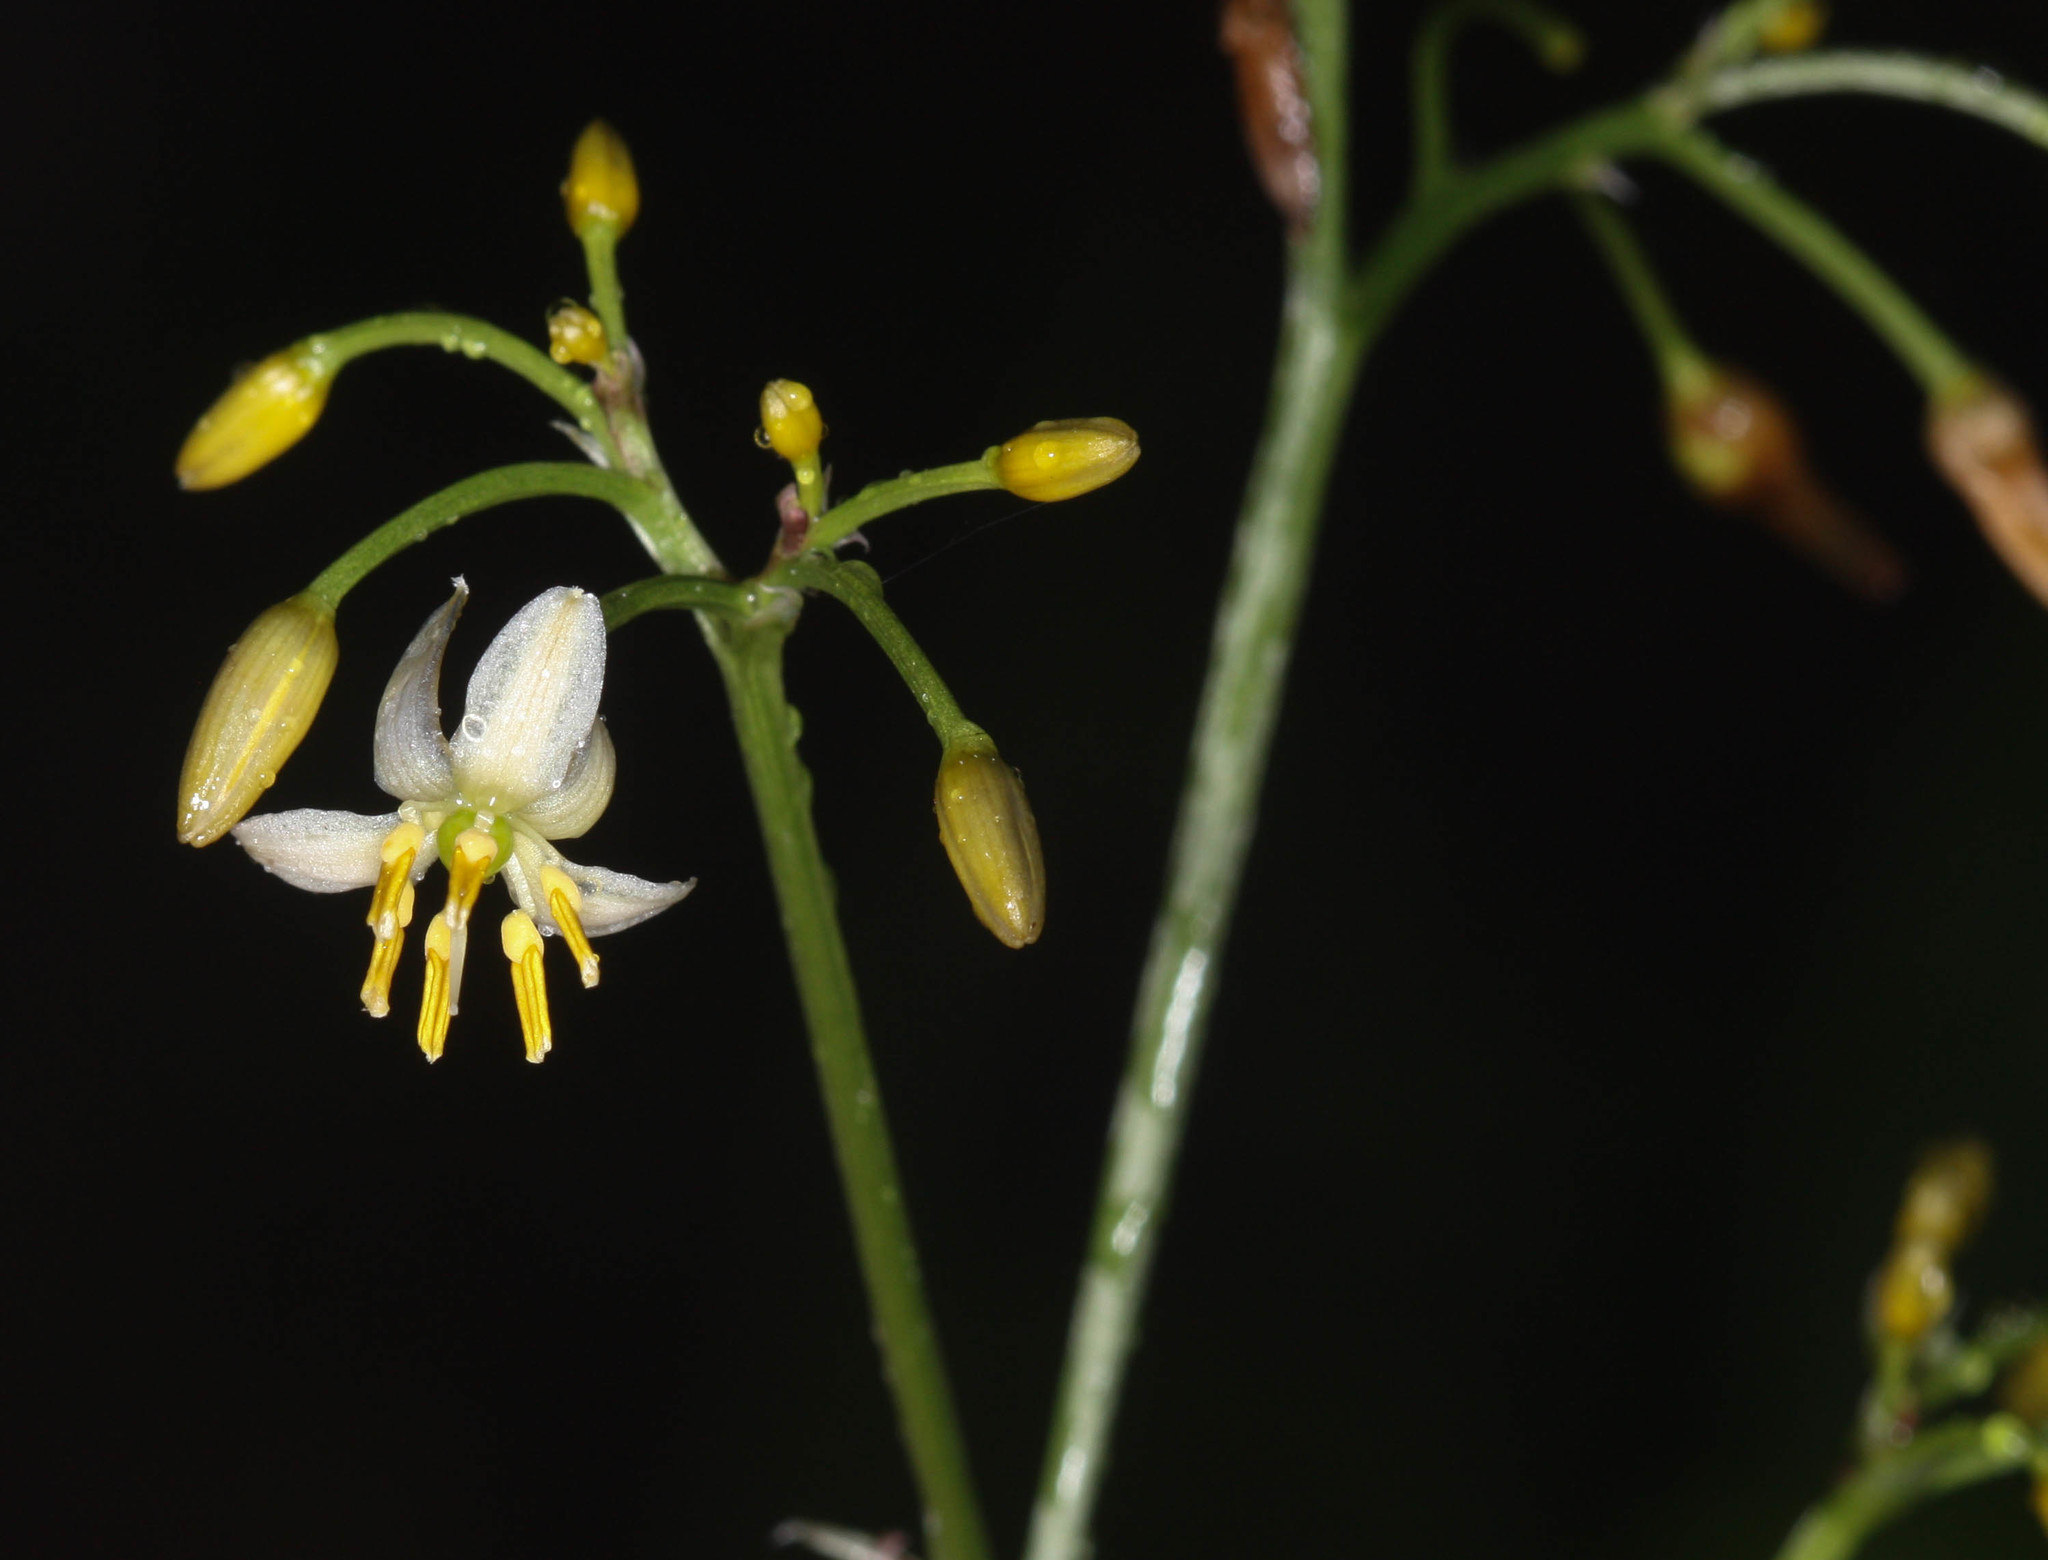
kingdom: Plantae
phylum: Tracheophyta
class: Liliopsida
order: Asparagales
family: Asphodelaceae
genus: Dianella
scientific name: Dianella ensifolia
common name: New zealand lilyplant
